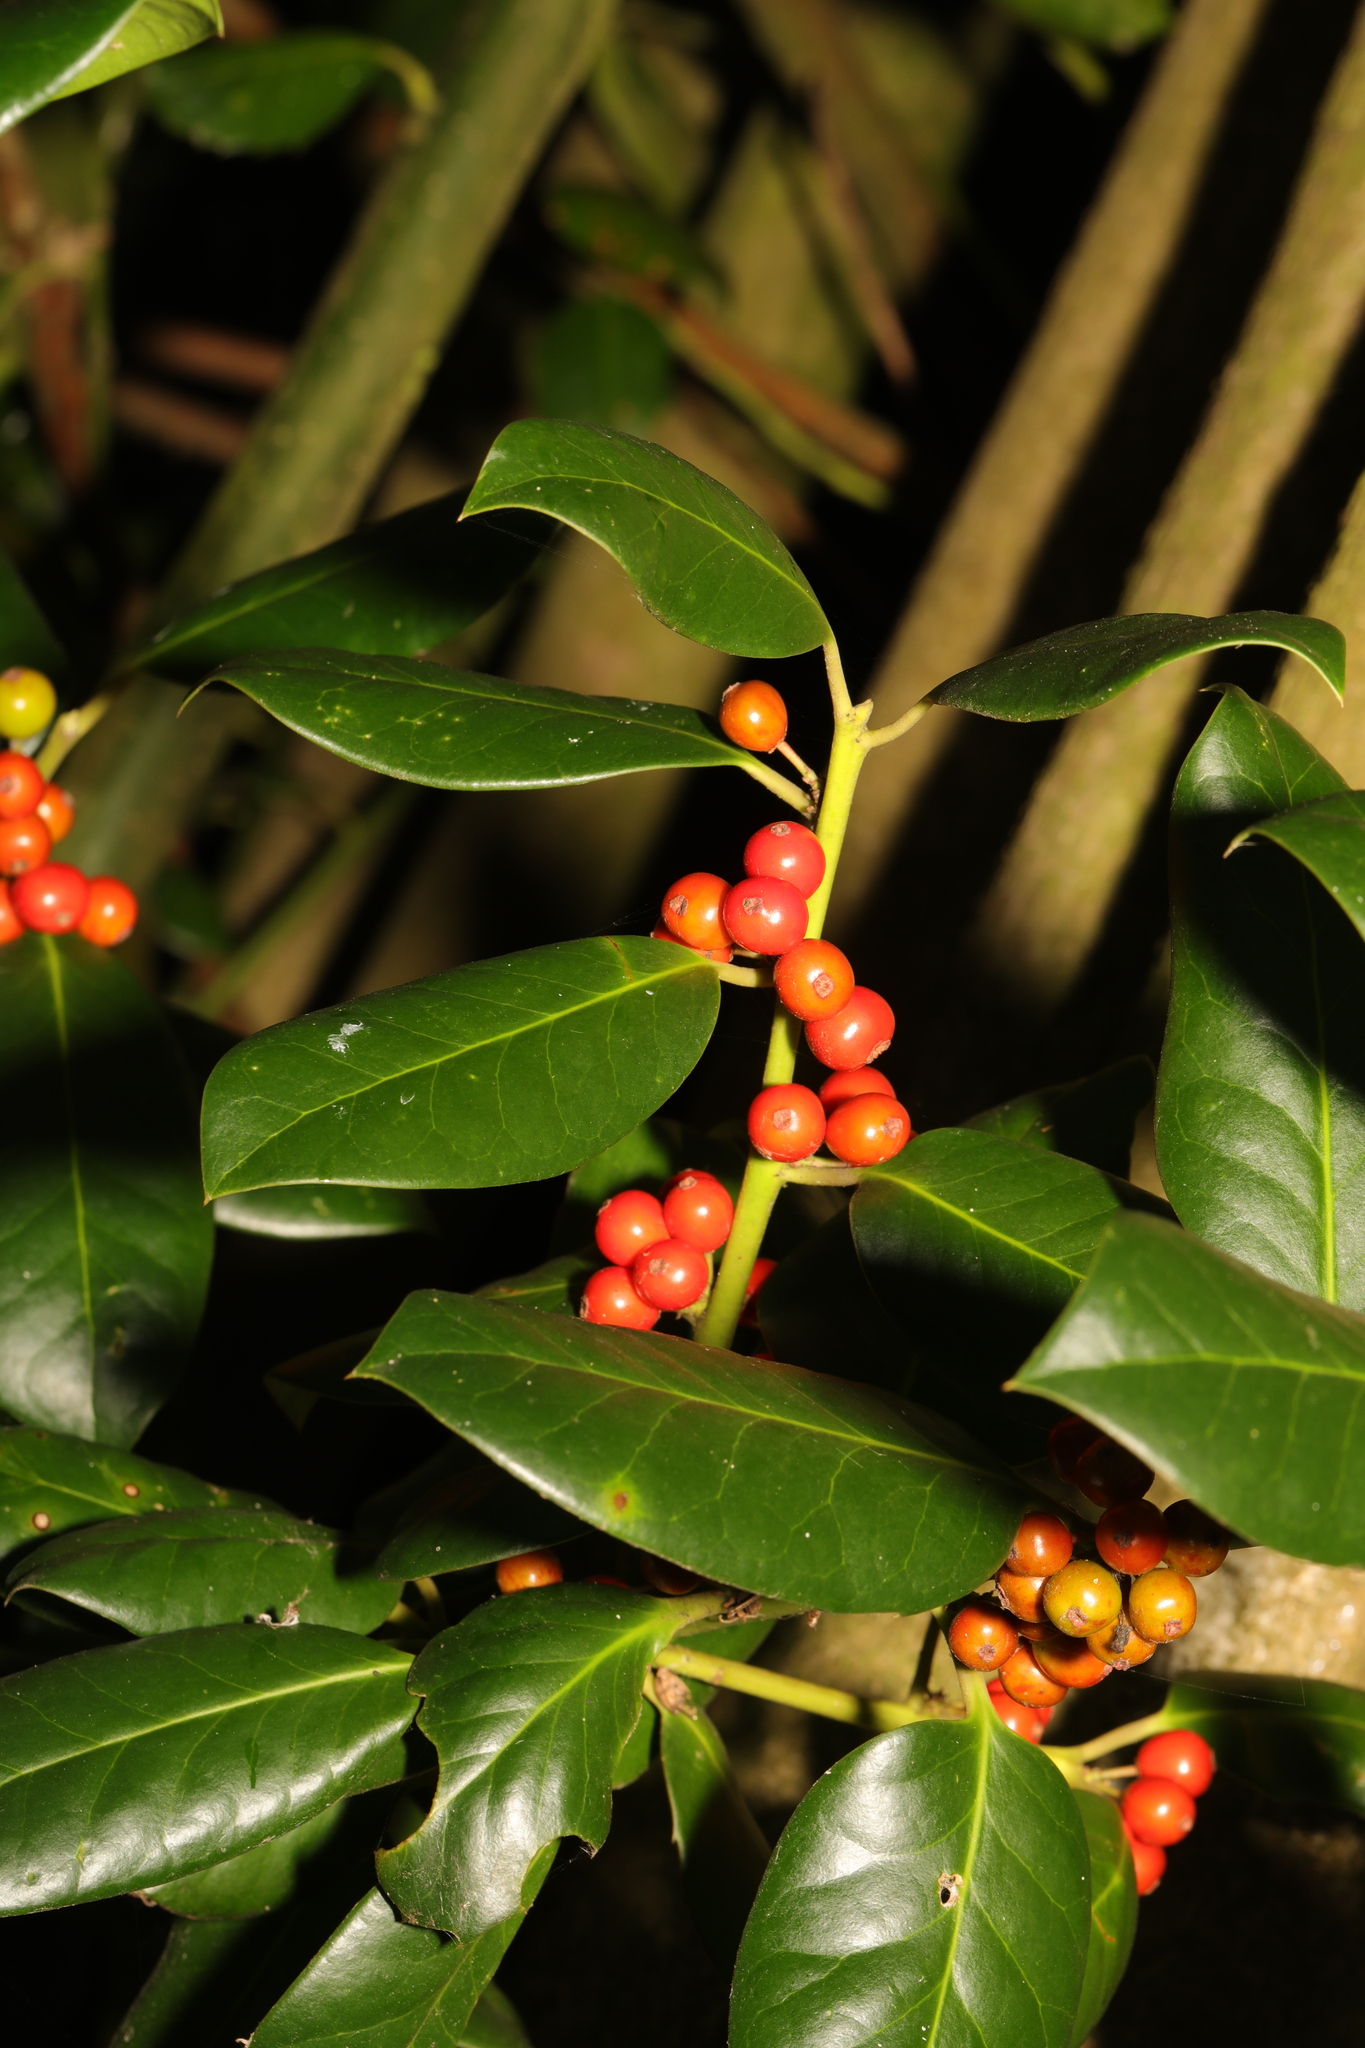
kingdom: Plantae
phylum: Tracheophyta
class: Magnoliopsida
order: Aquifoliales
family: Aquifoliaceae
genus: Ilex
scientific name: Ilex aquifolium
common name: English holly
